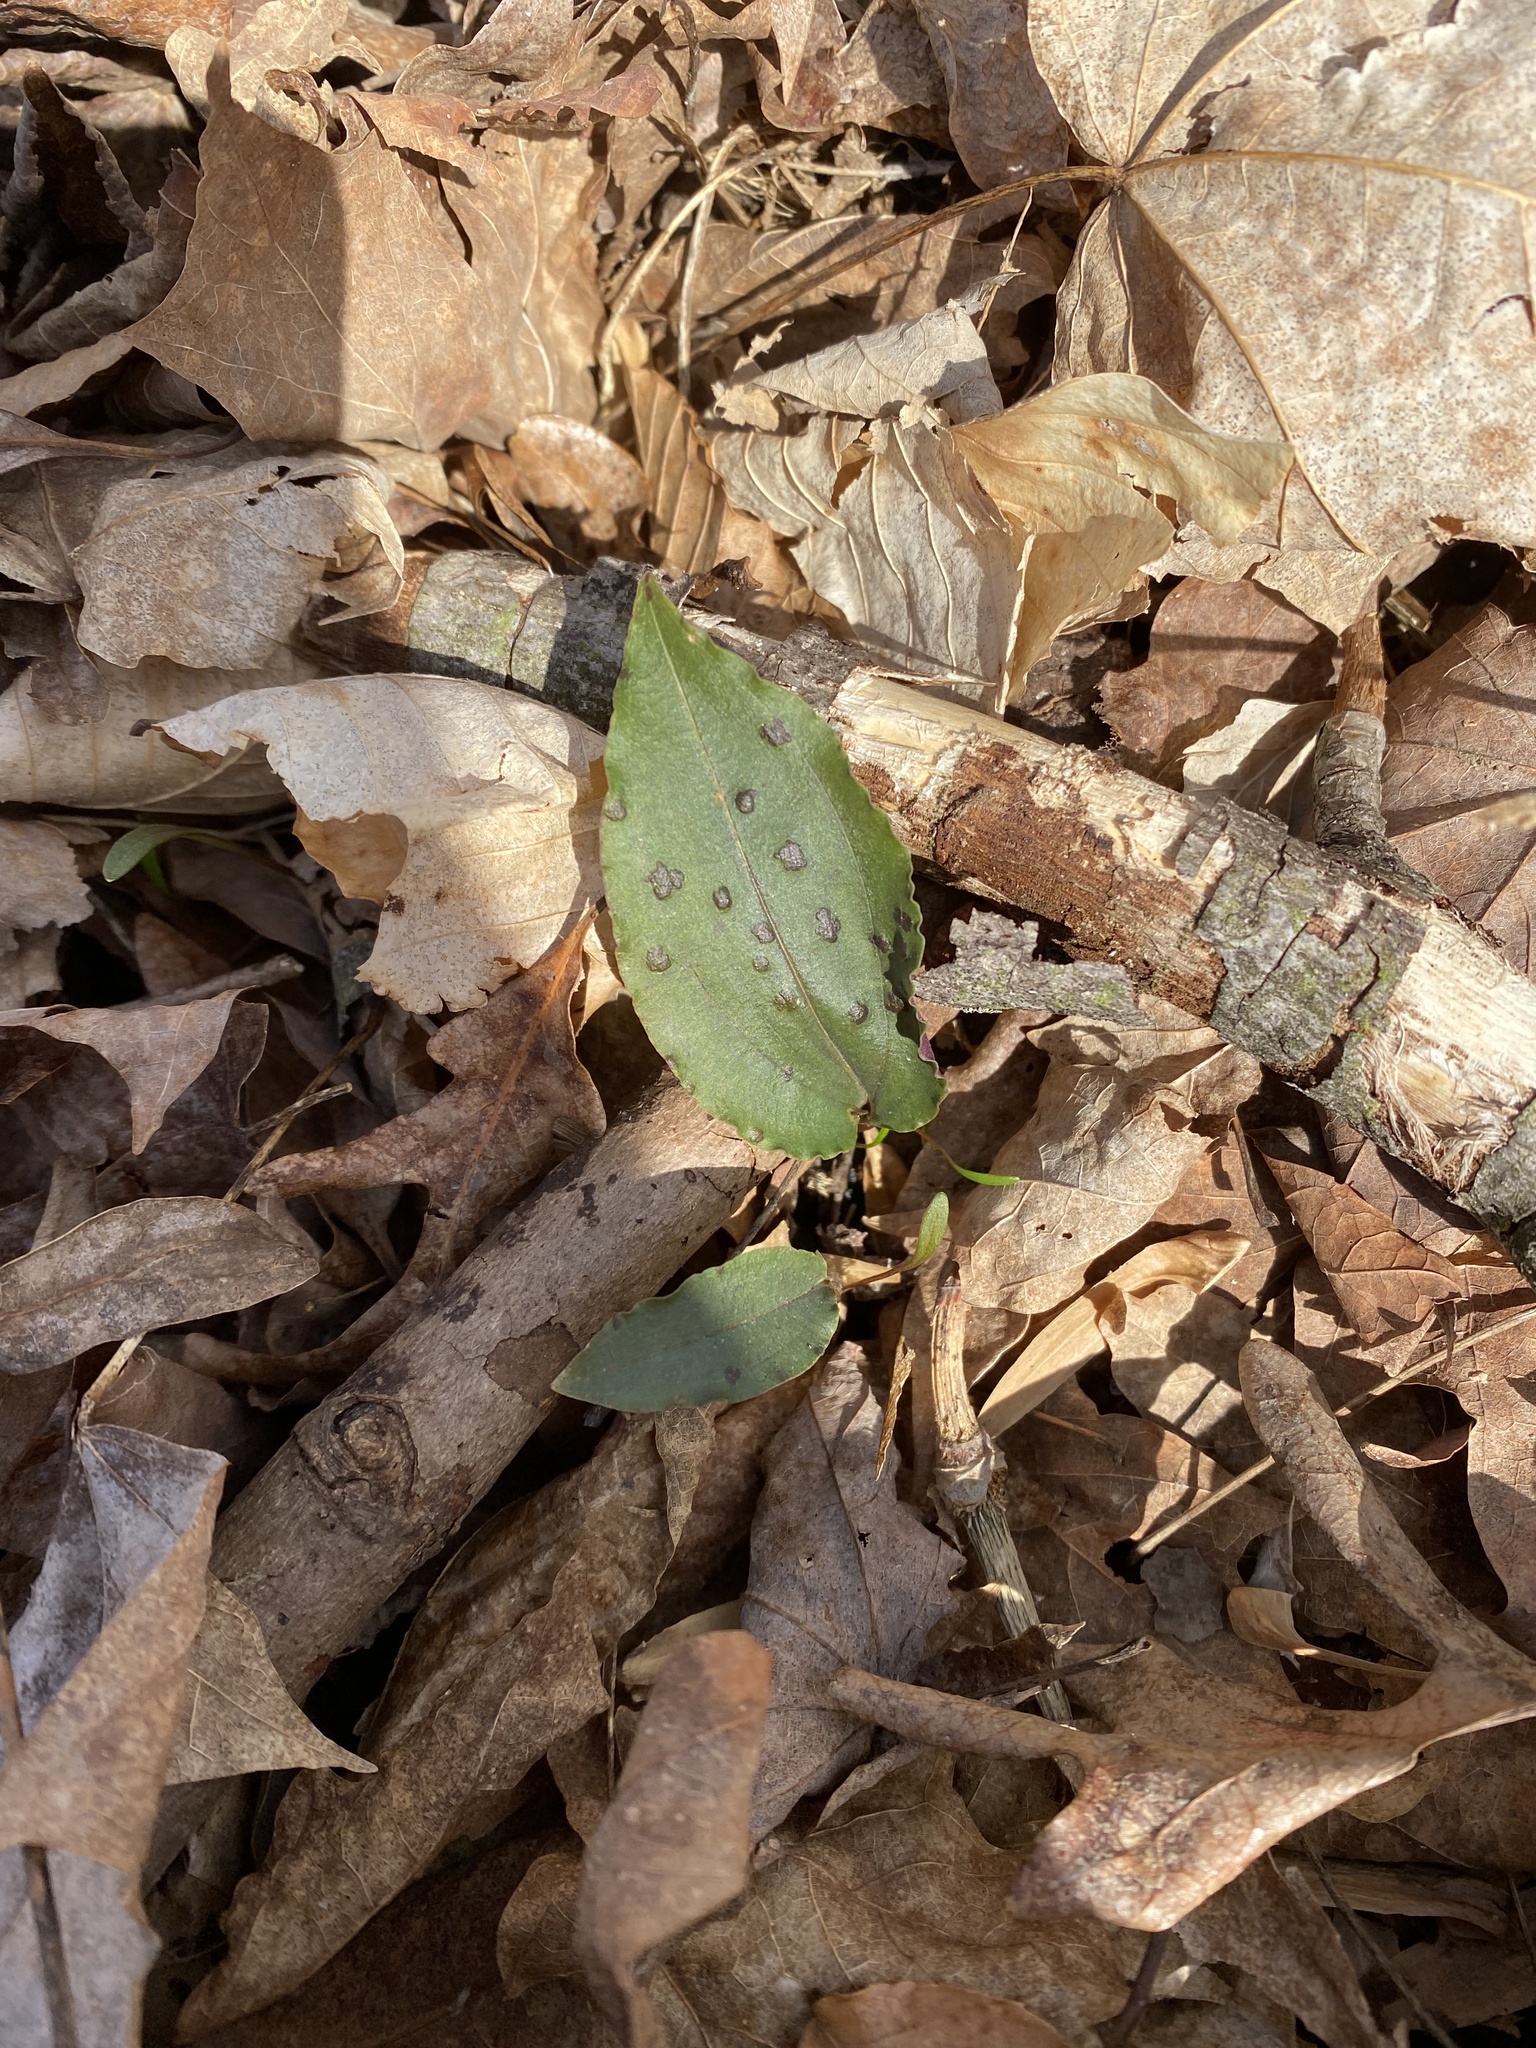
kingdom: Plantae
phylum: Tracheophyta
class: Liliopsida
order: Asparagales
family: Orchidaceae
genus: Tipularia
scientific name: Tipularia discolor
